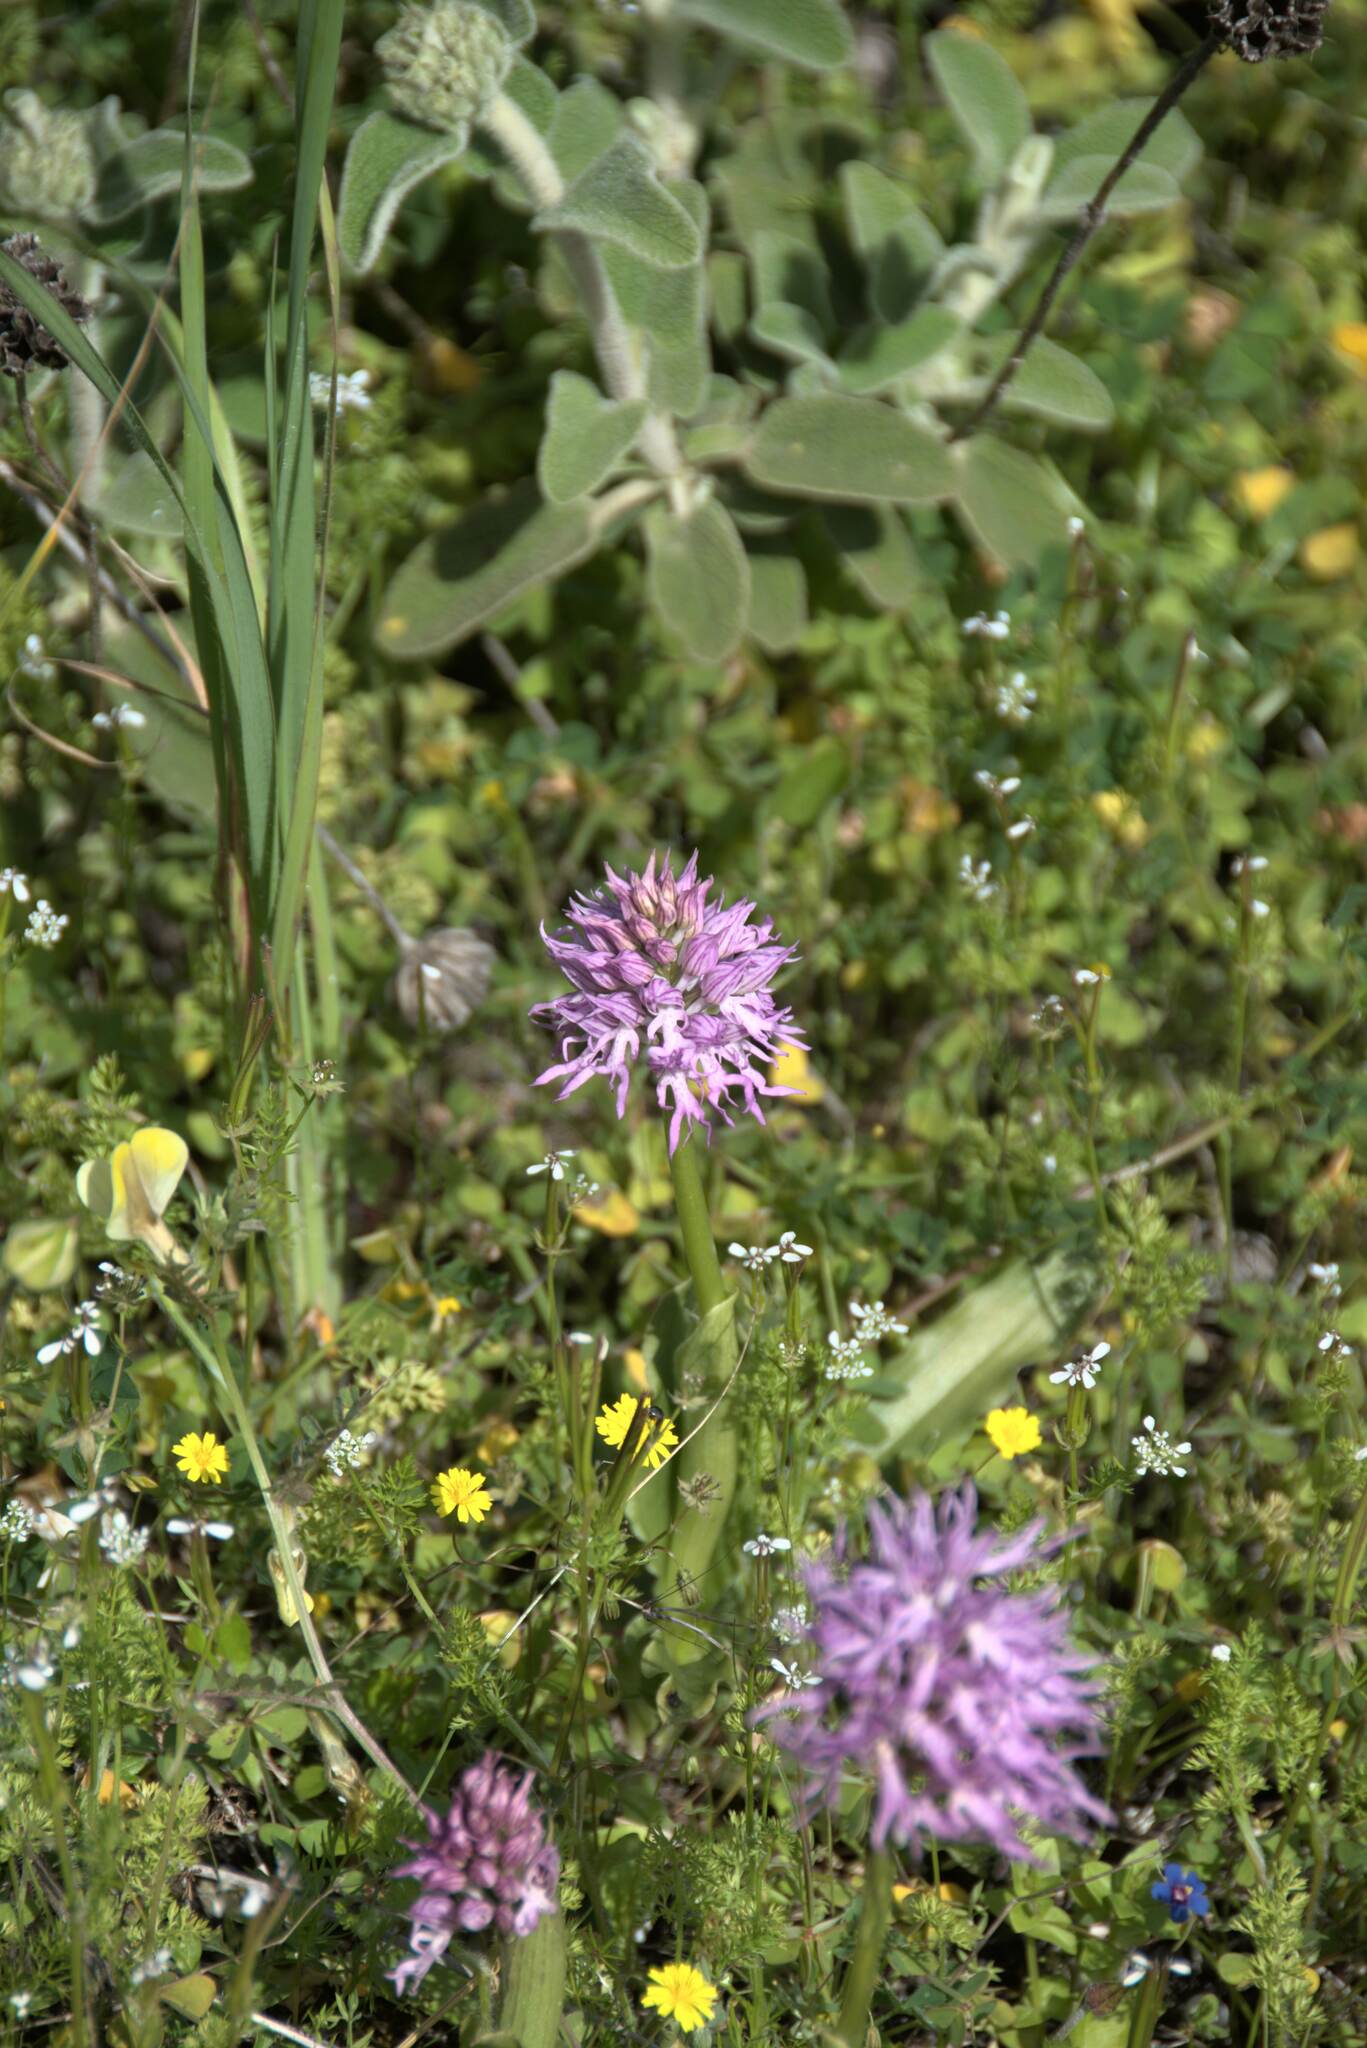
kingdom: Plantae
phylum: Tracheophyta
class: Liliopsida
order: Asparagales
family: Orchidaceae
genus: Orchis
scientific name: Orchis italica
